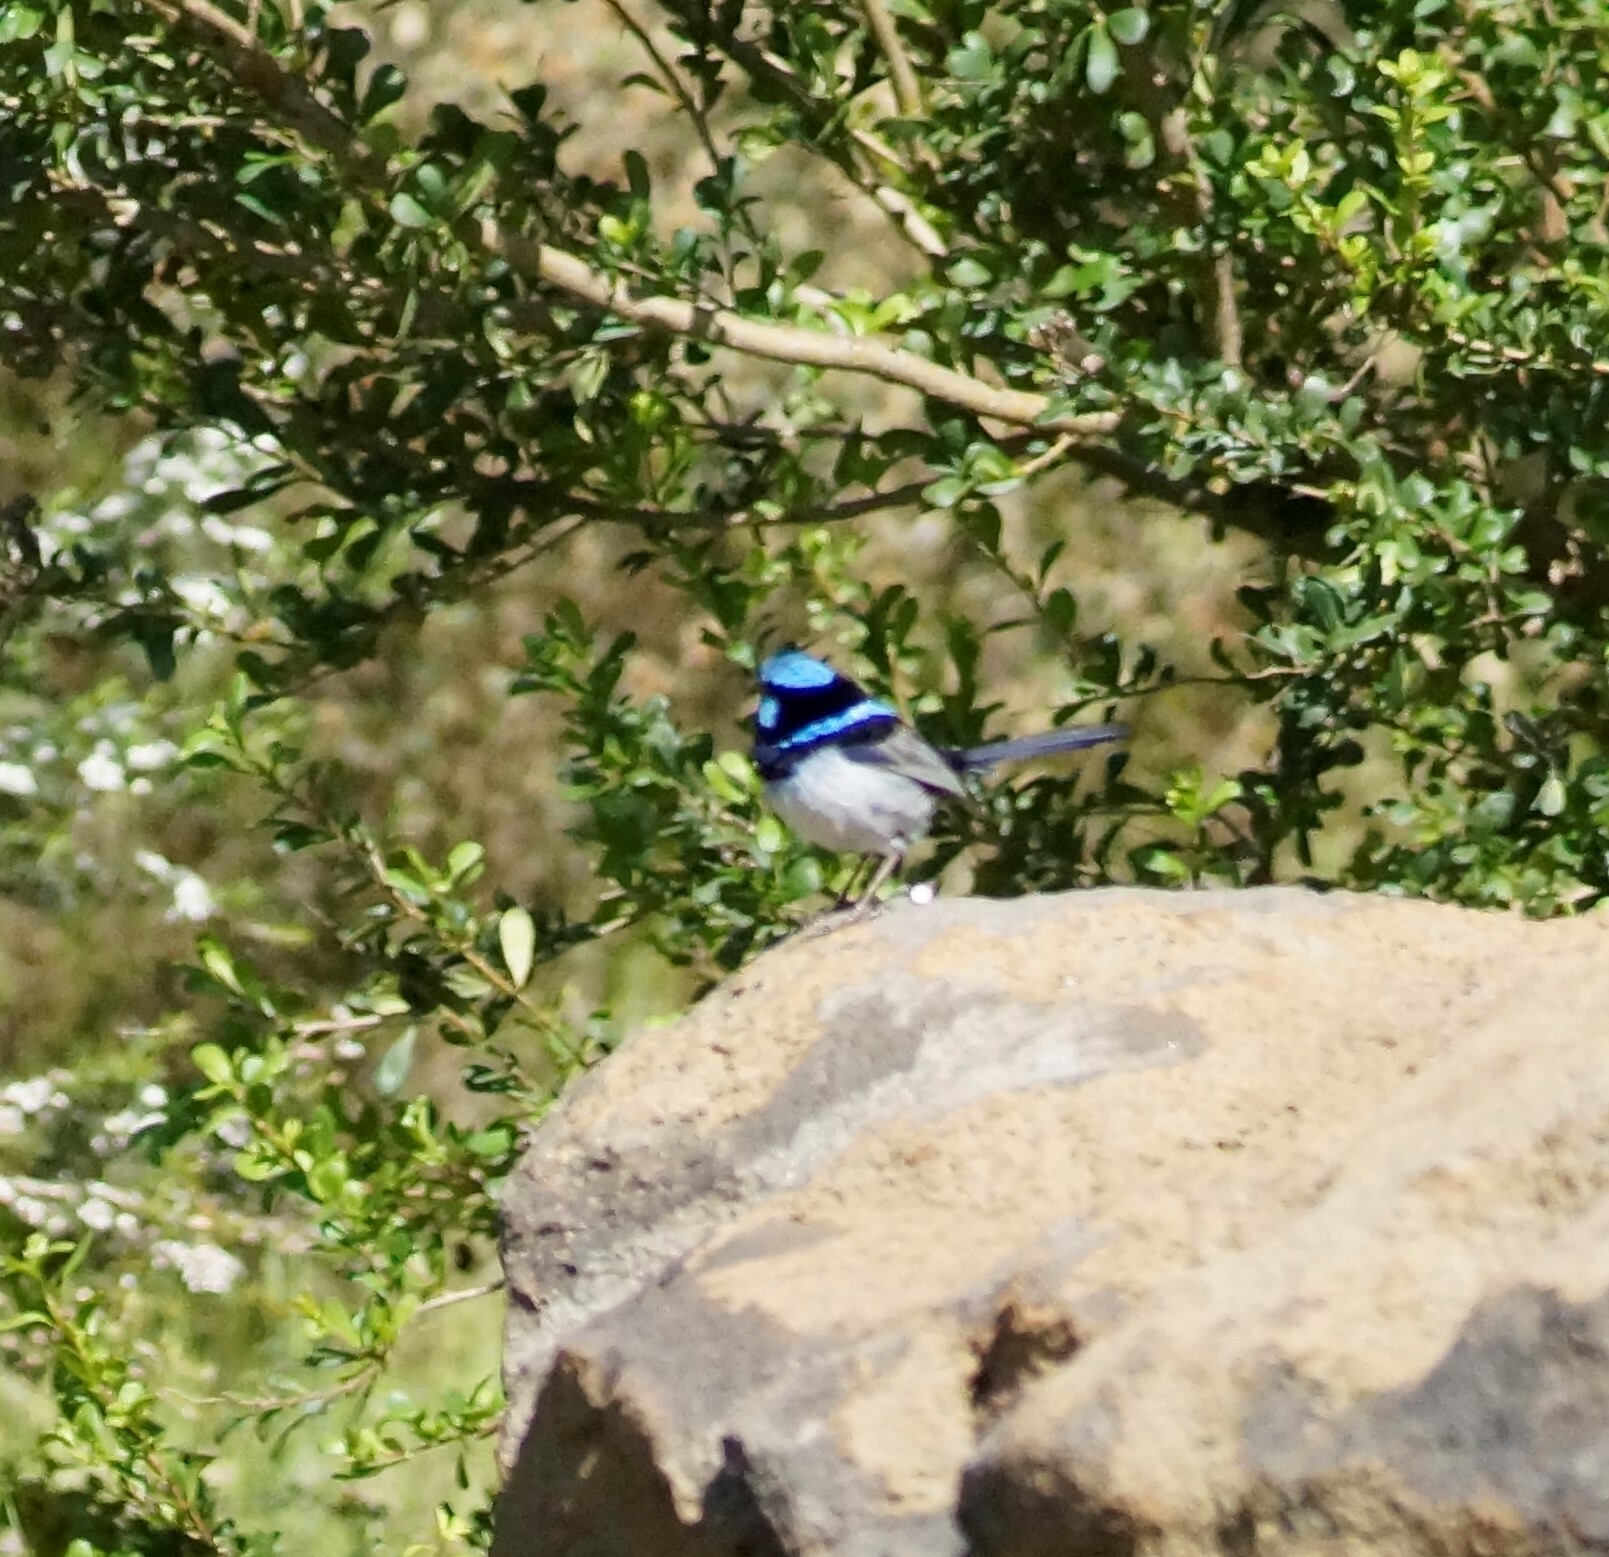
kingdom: Animalia
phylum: Chordata
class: Aves
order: Passeriformes
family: Maluridae
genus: Malurus
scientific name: Malurus cyaneus
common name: Superb fairywren
